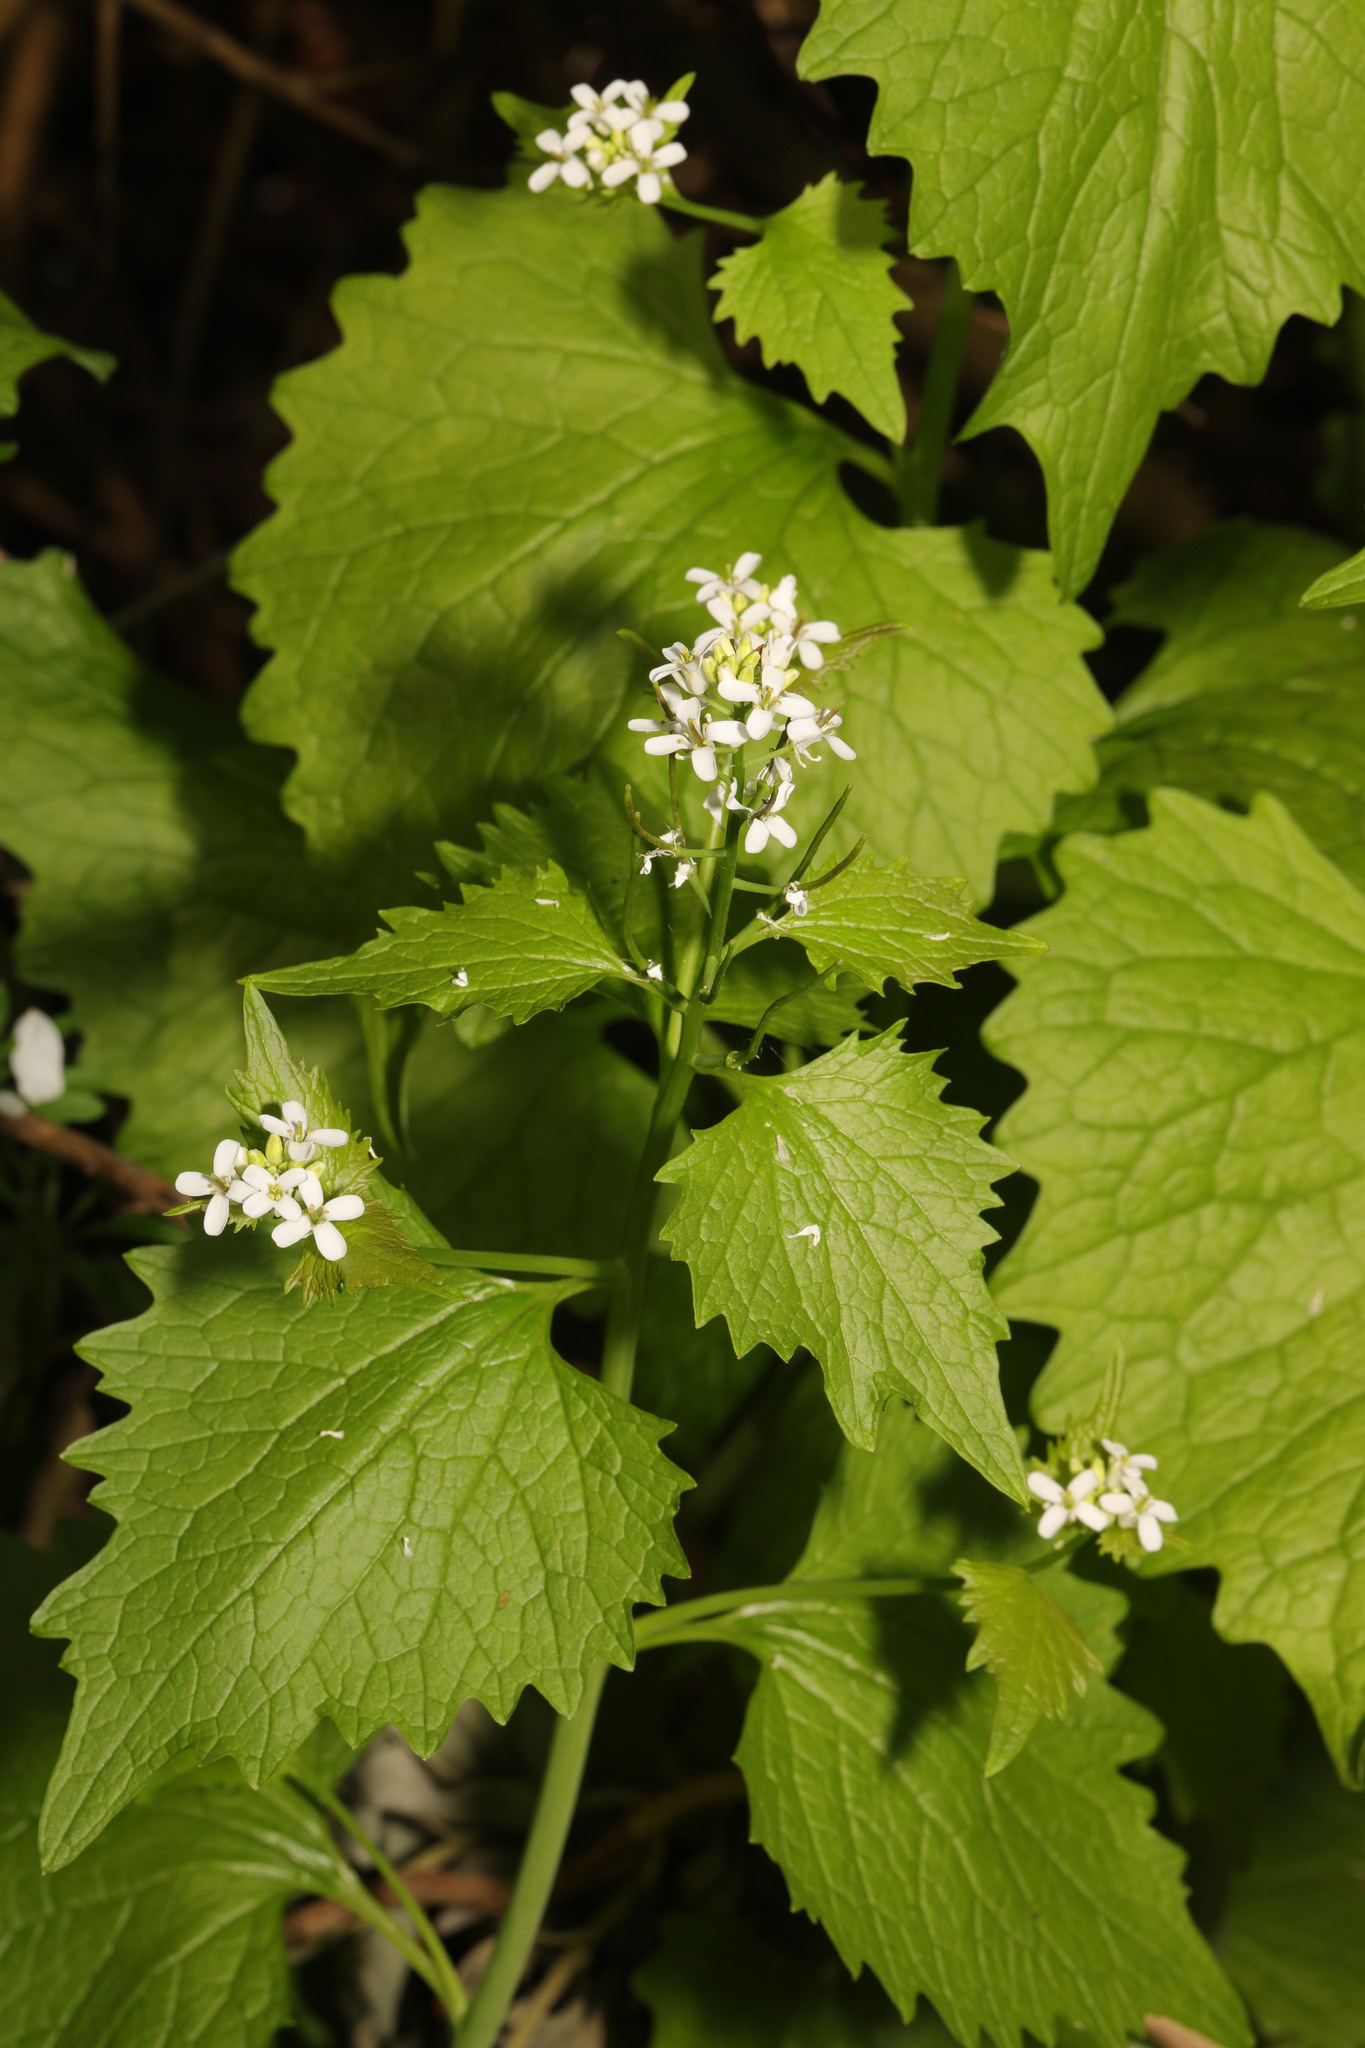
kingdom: Plantae
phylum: Tracheophyta
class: Magnoliopsida
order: Brassicales
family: Brassicaceae
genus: Alliaria
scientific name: Alliaria petiolata
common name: Garlic mustard
